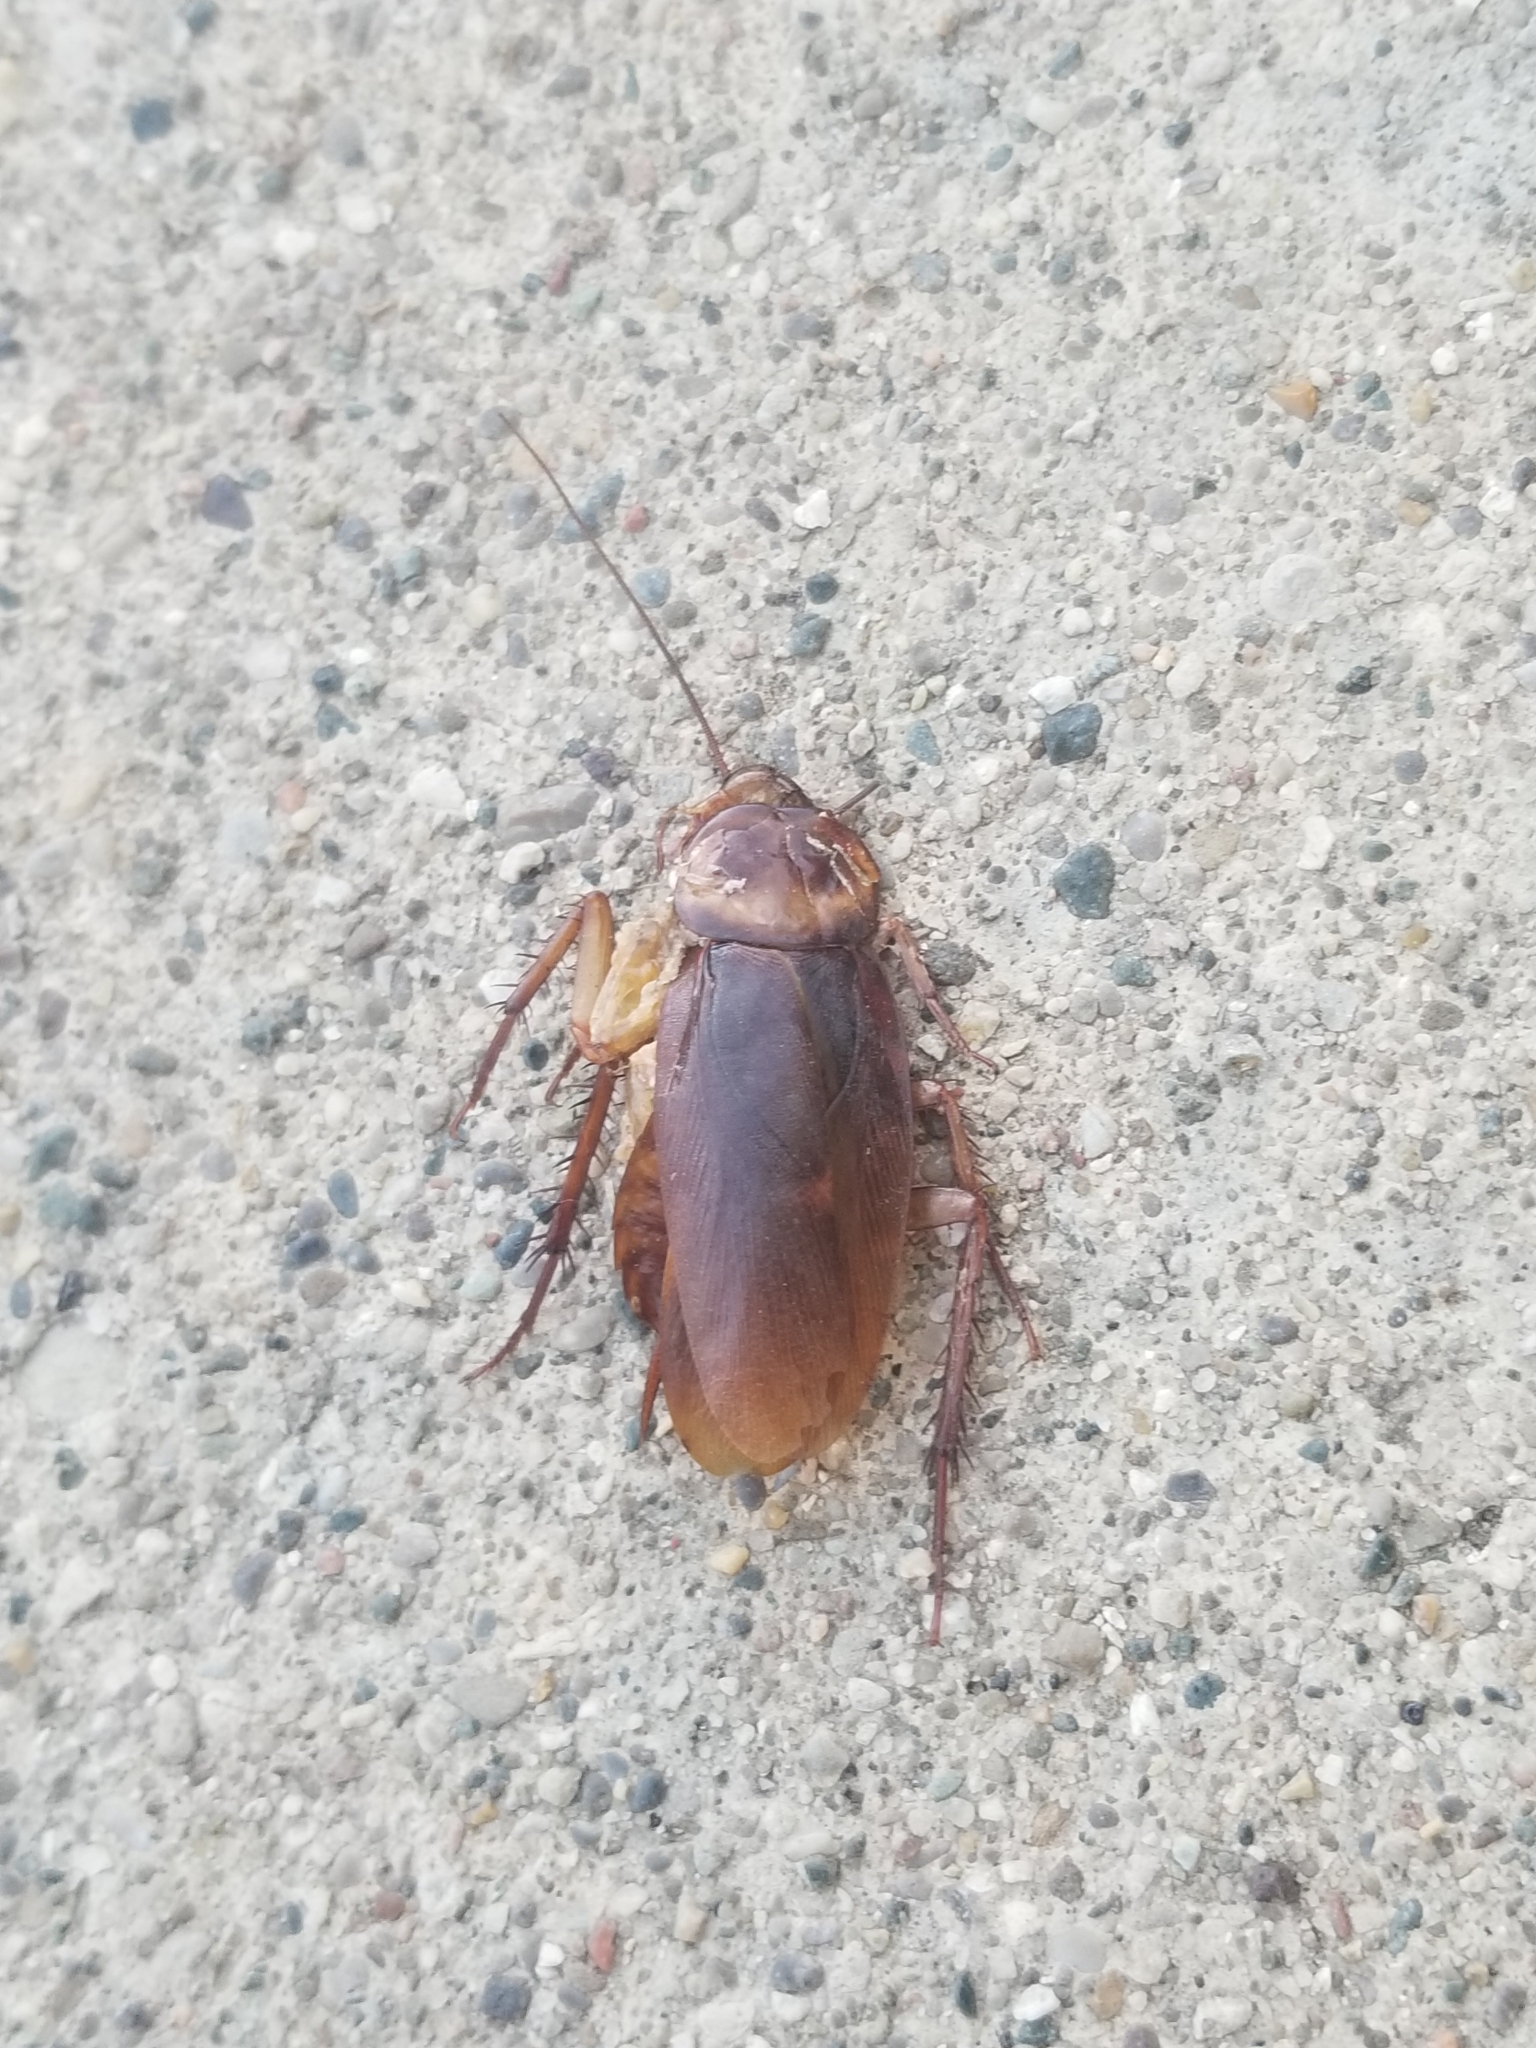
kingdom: Animalia
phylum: Arthropoda
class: Insecta
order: Blattodea
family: Blattidae
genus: Periplaneta
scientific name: Periplaneta americana
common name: American cockroach
